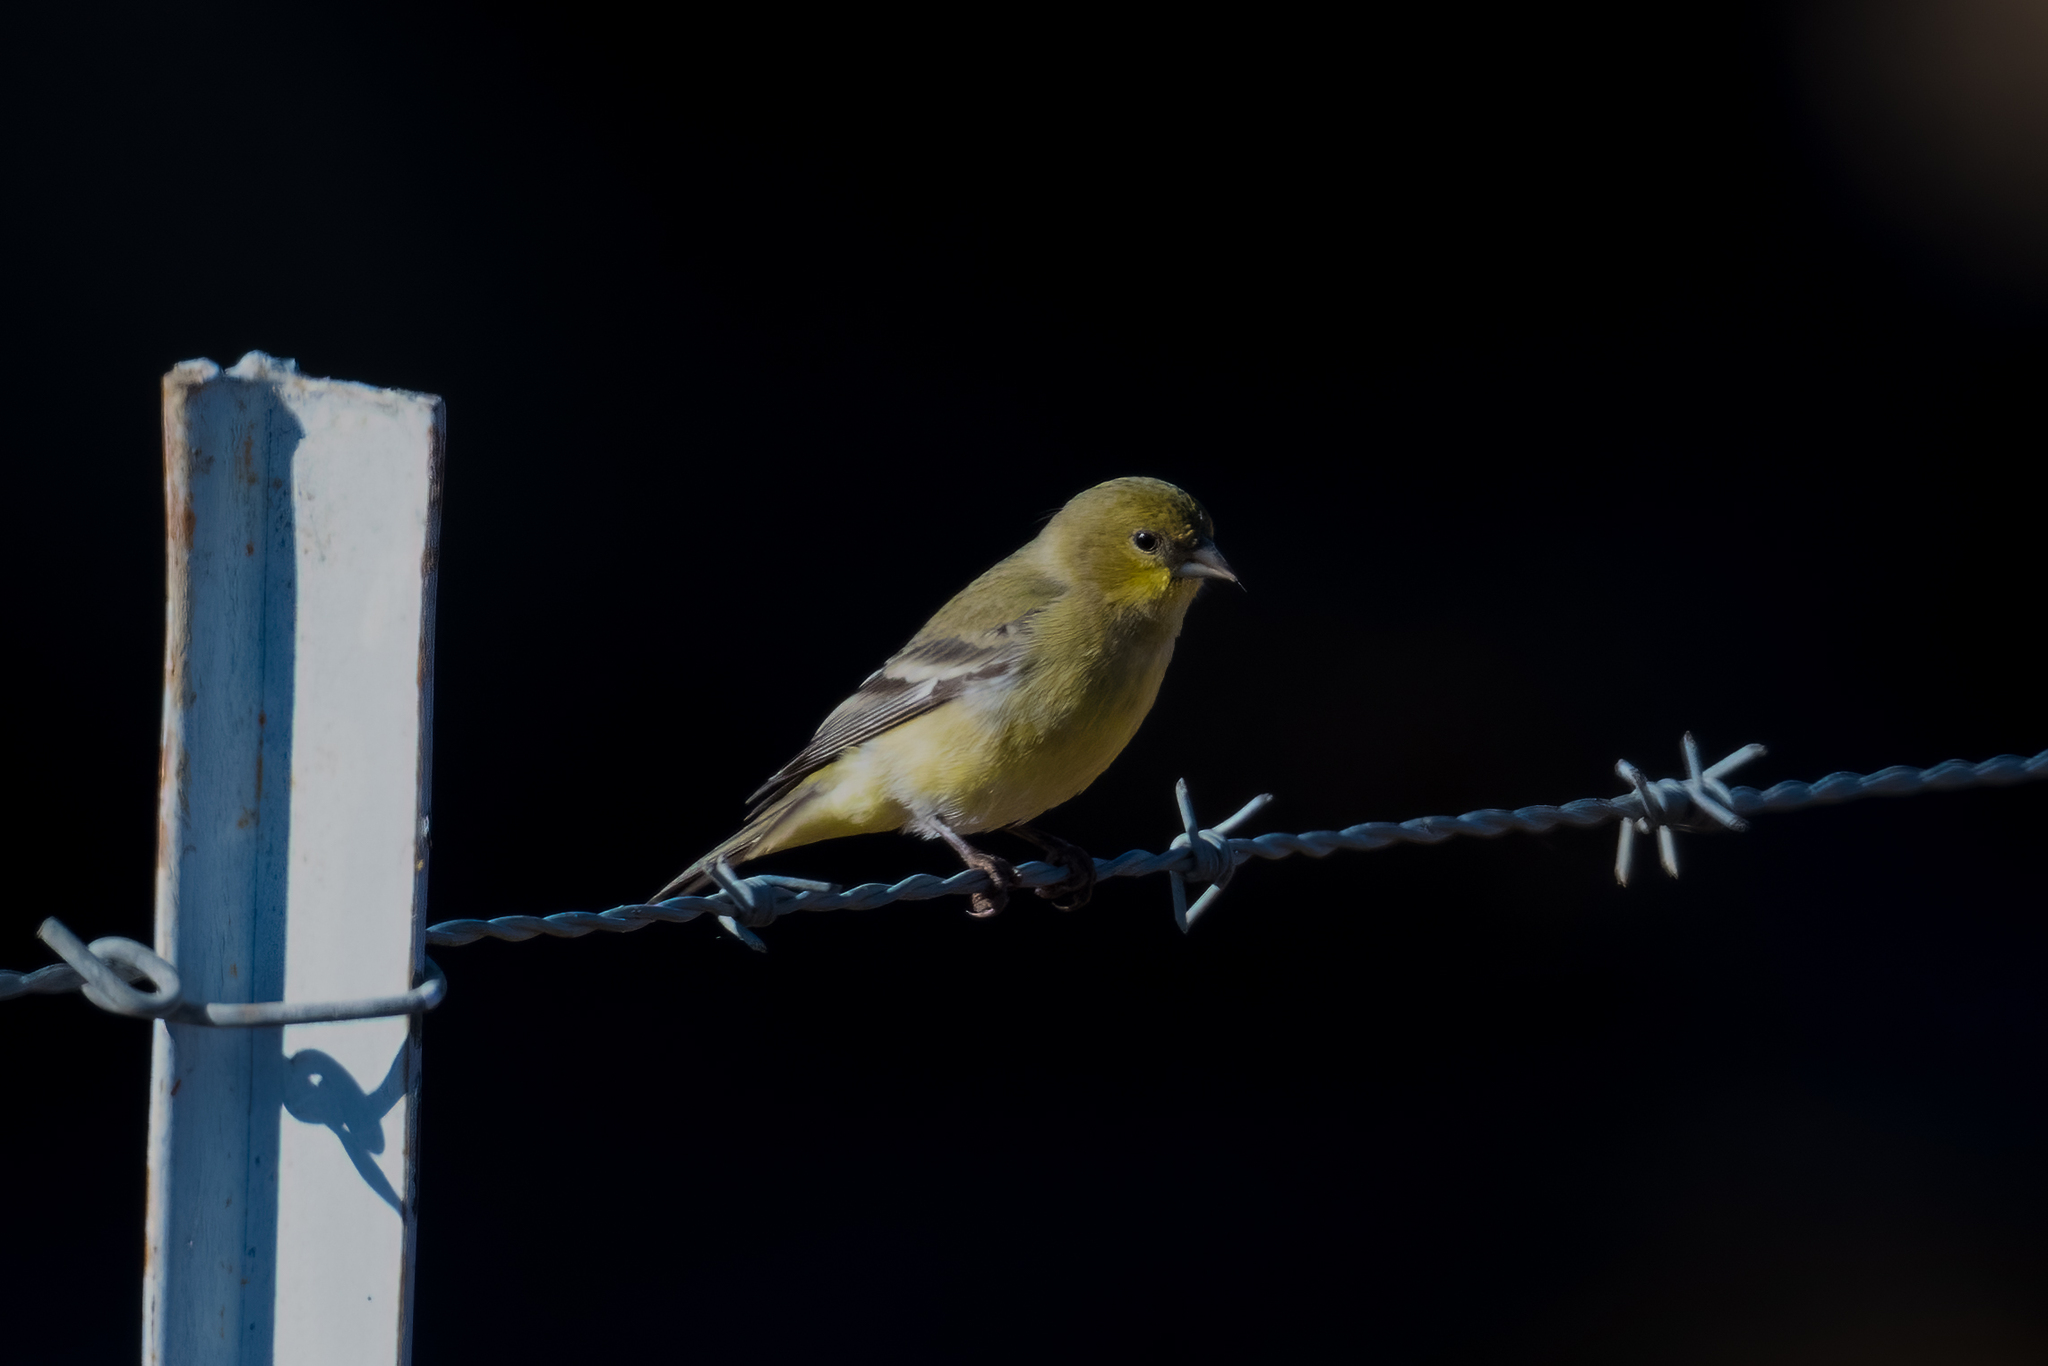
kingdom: Animalia
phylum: Chordata
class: Aves
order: Passeriformes
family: Fringillidae
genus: Spinus
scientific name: Spinus psaltria
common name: Lesser goldfinch
